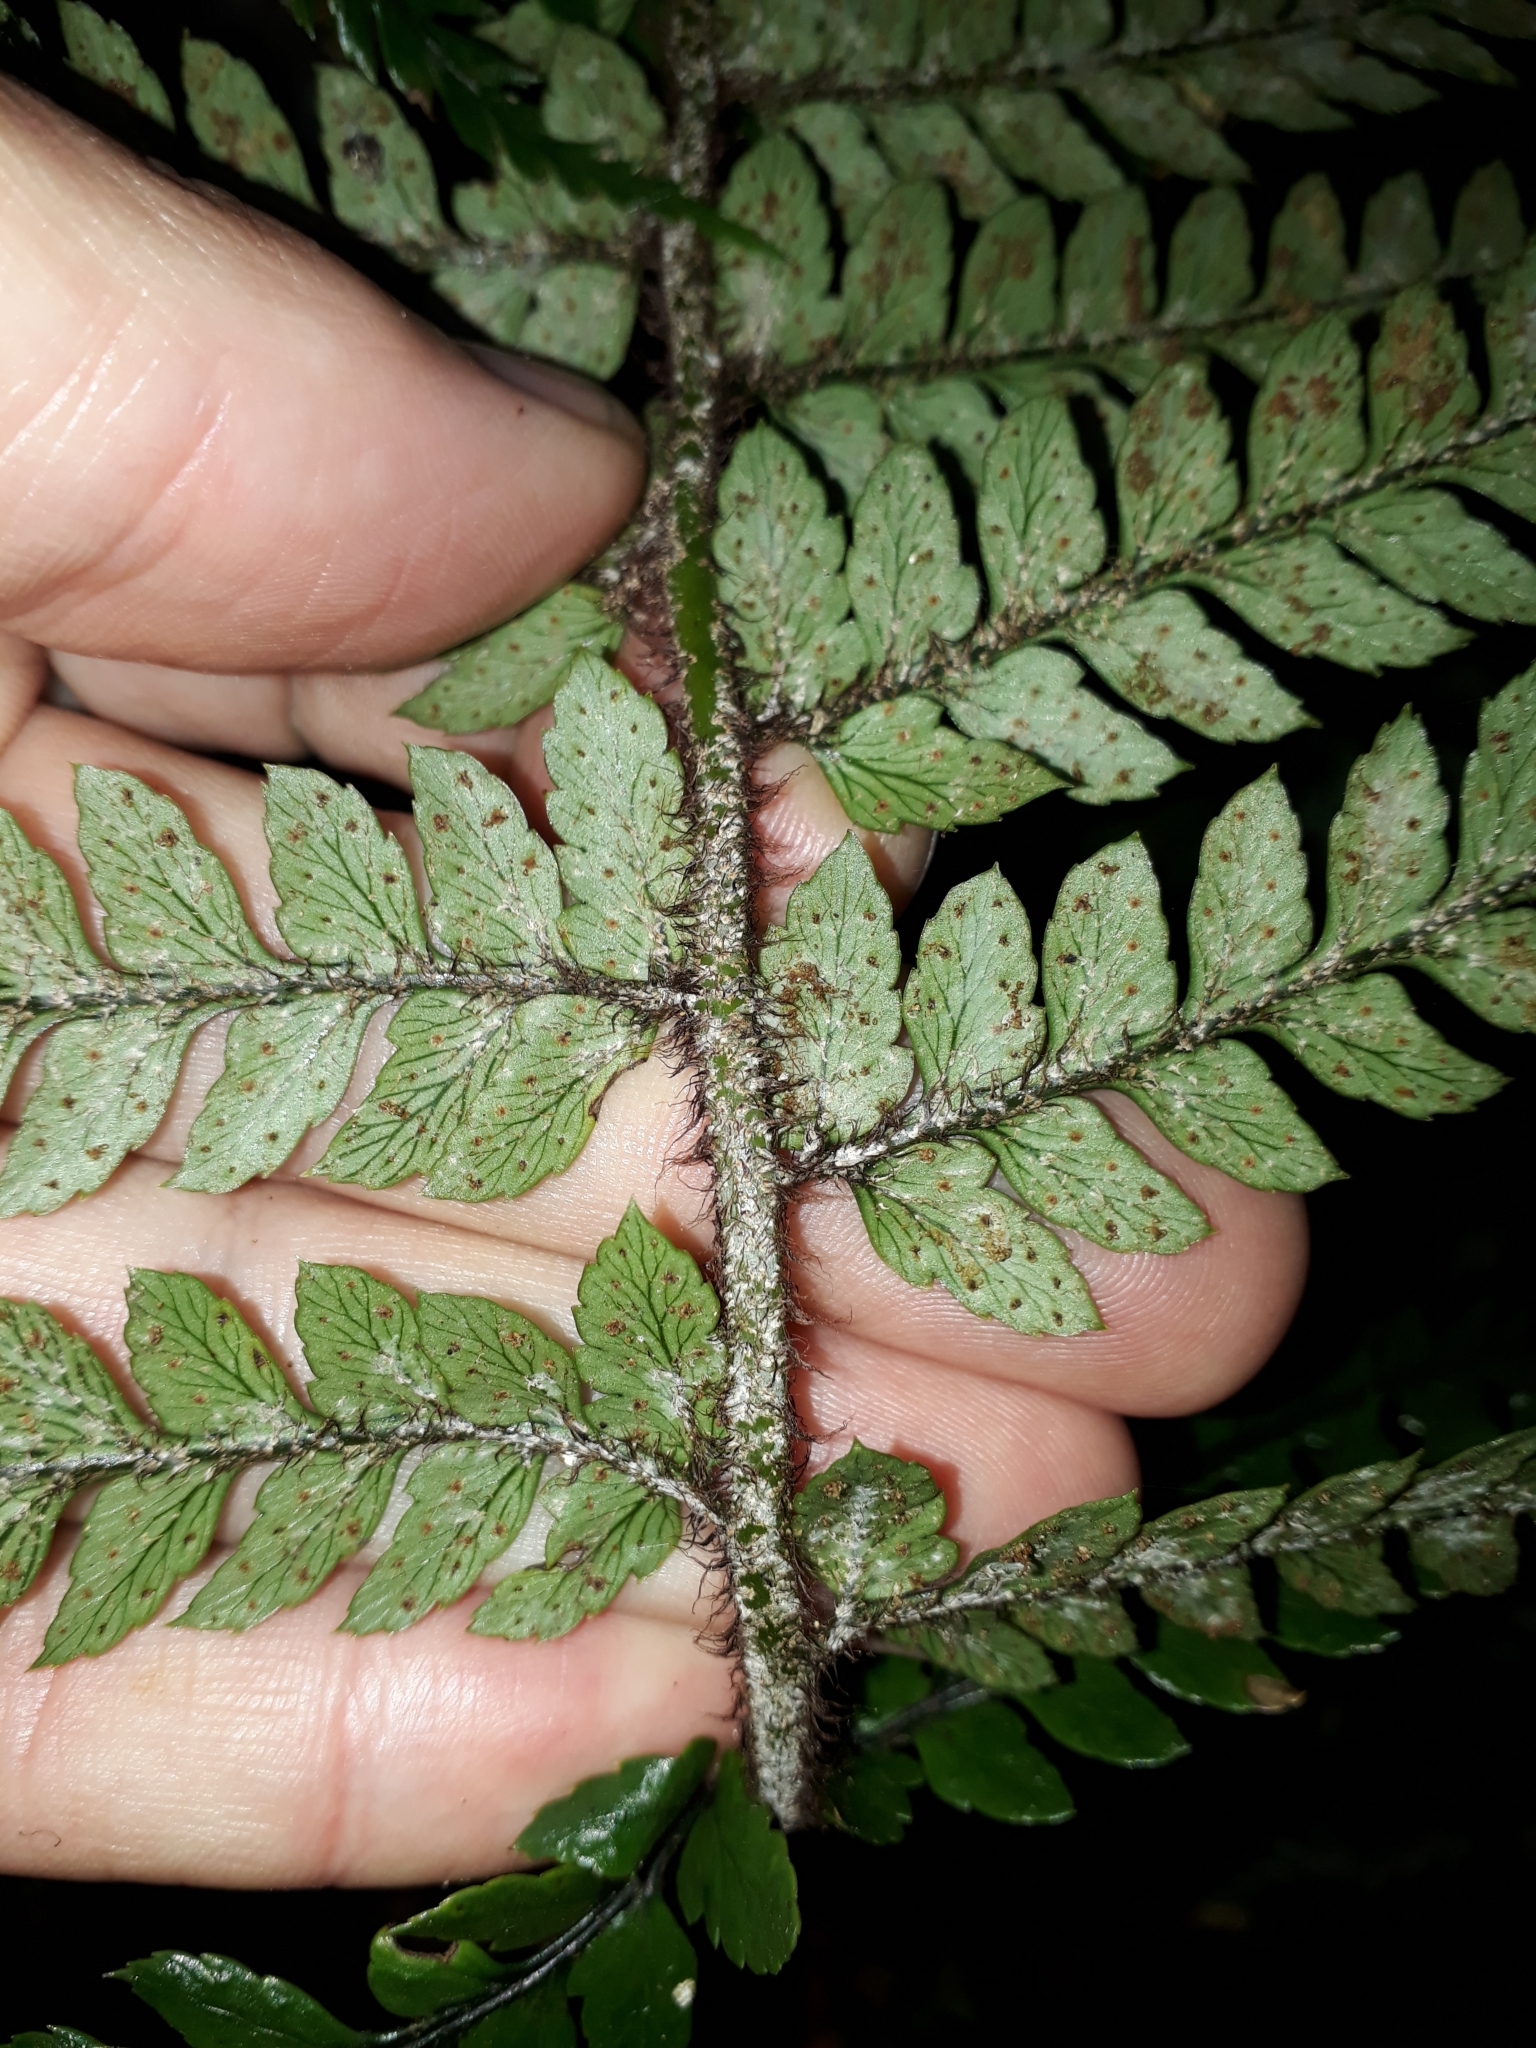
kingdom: Plantae
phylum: Tracheophyta
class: Polypodiopsida
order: Polypodiales
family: Dryopteridaceae
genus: Polystichum
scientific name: Polystichum wawranum
